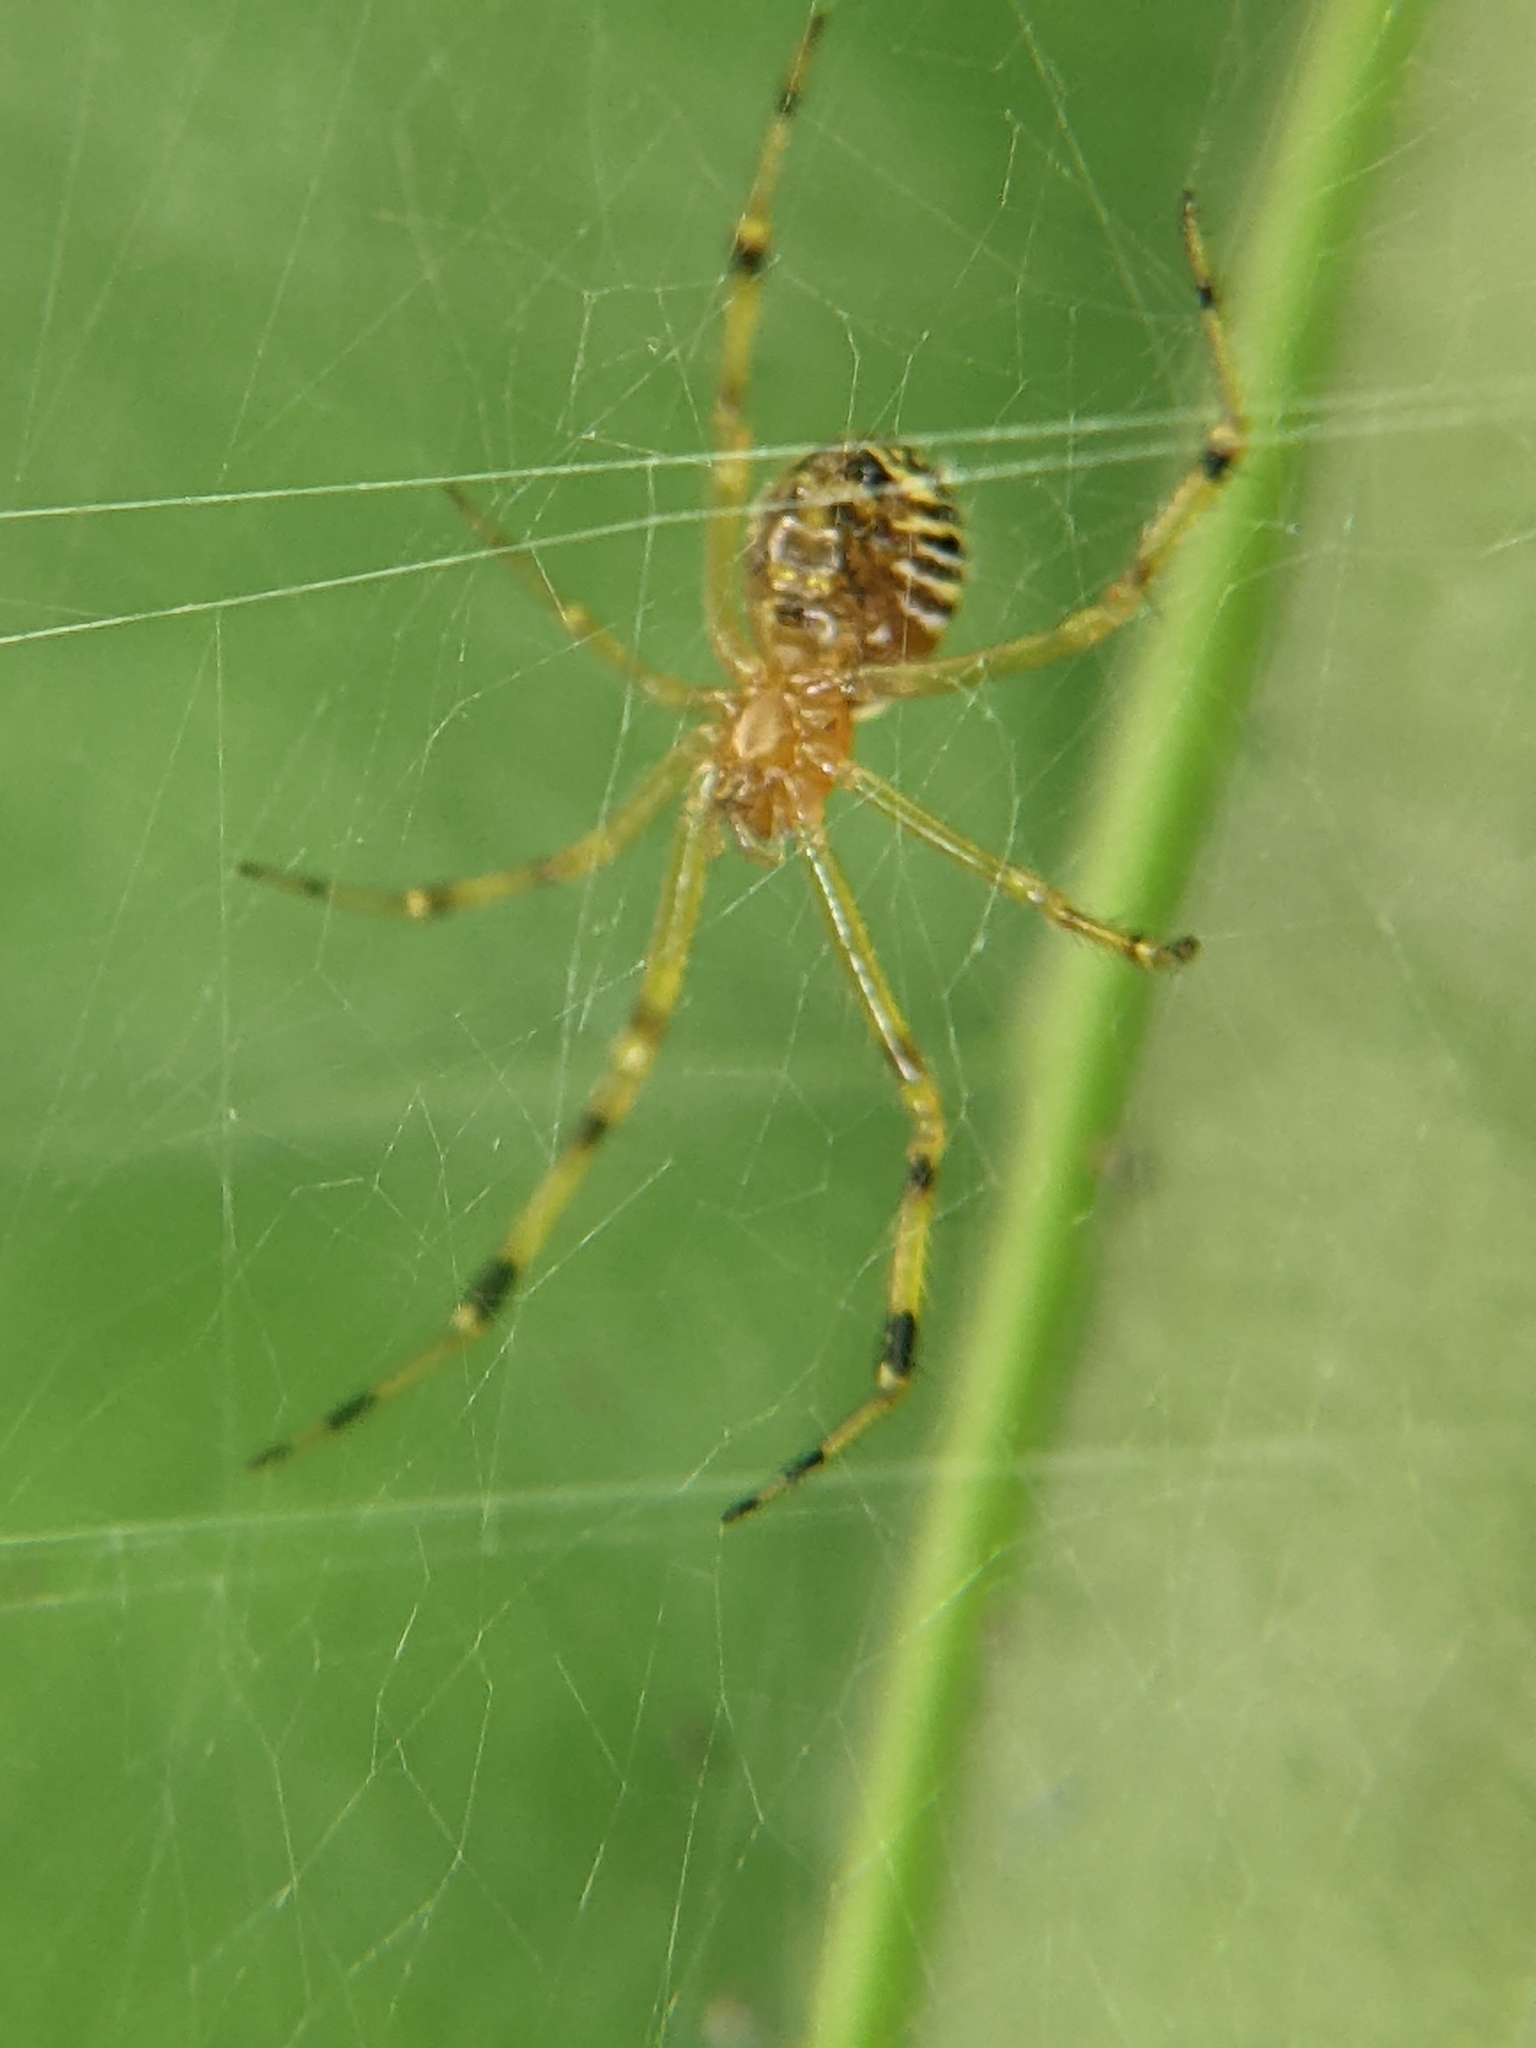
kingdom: Animalia
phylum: Arthropoda
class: Arachnida
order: Araneae
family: Theridiidae
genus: Theridion
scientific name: Theridion zonulatum
